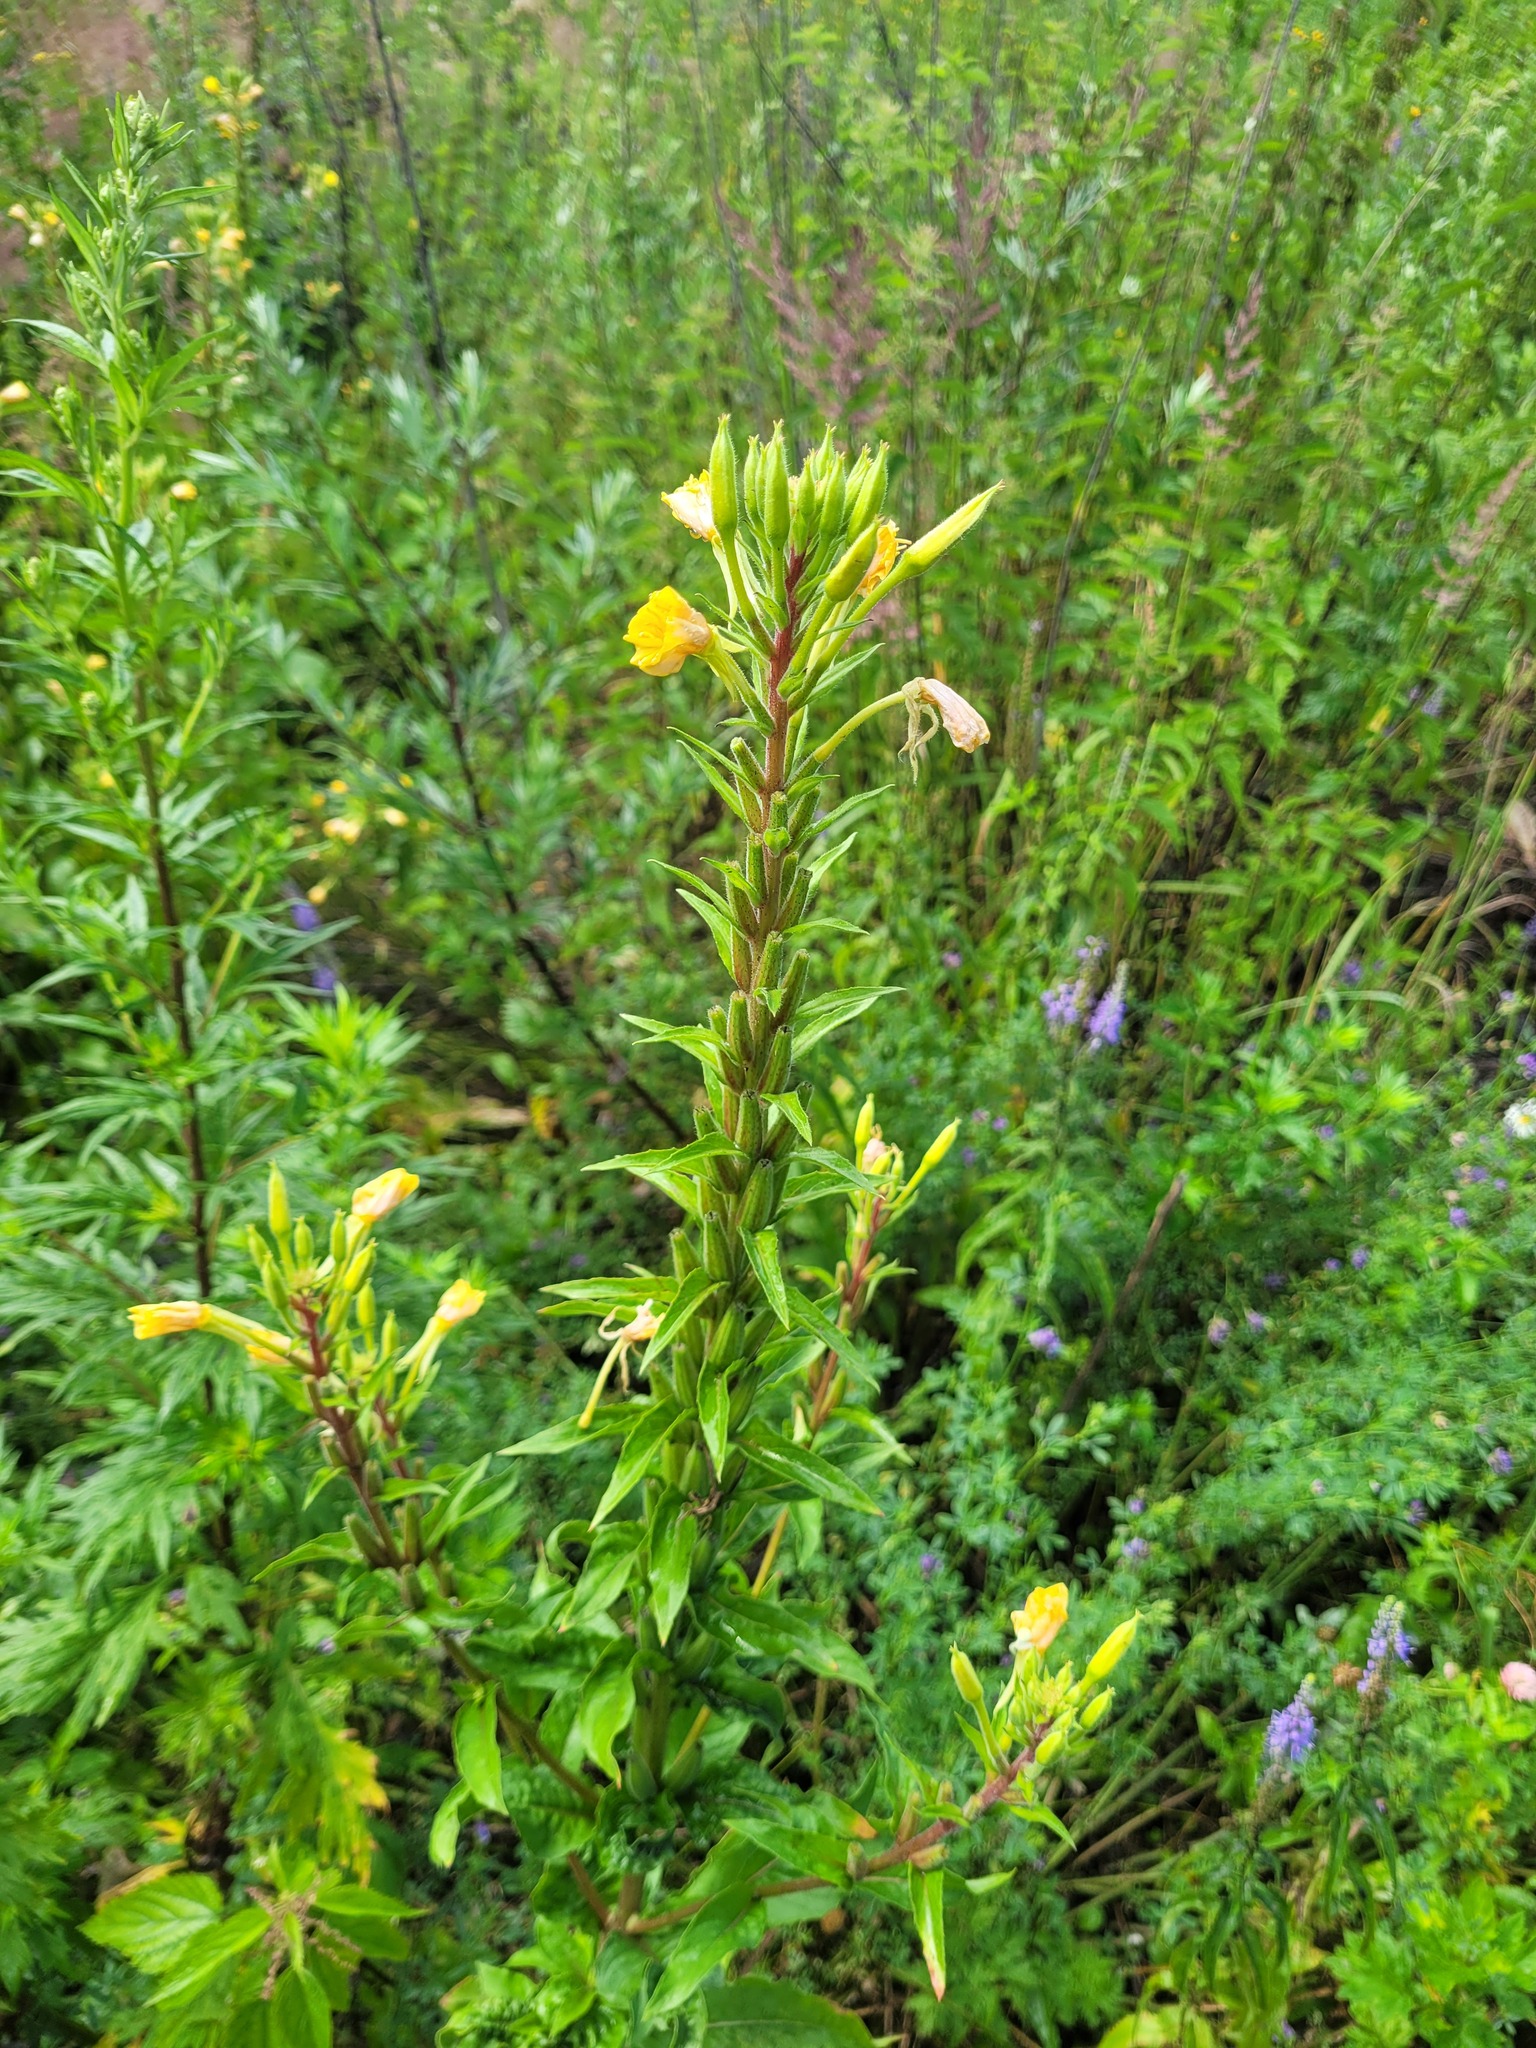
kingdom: Plantae
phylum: Tracheophyta
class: Magnoliopsida
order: Myrtales
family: Onagraceae
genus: Oenothera
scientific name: Oenothera rubricaulis
